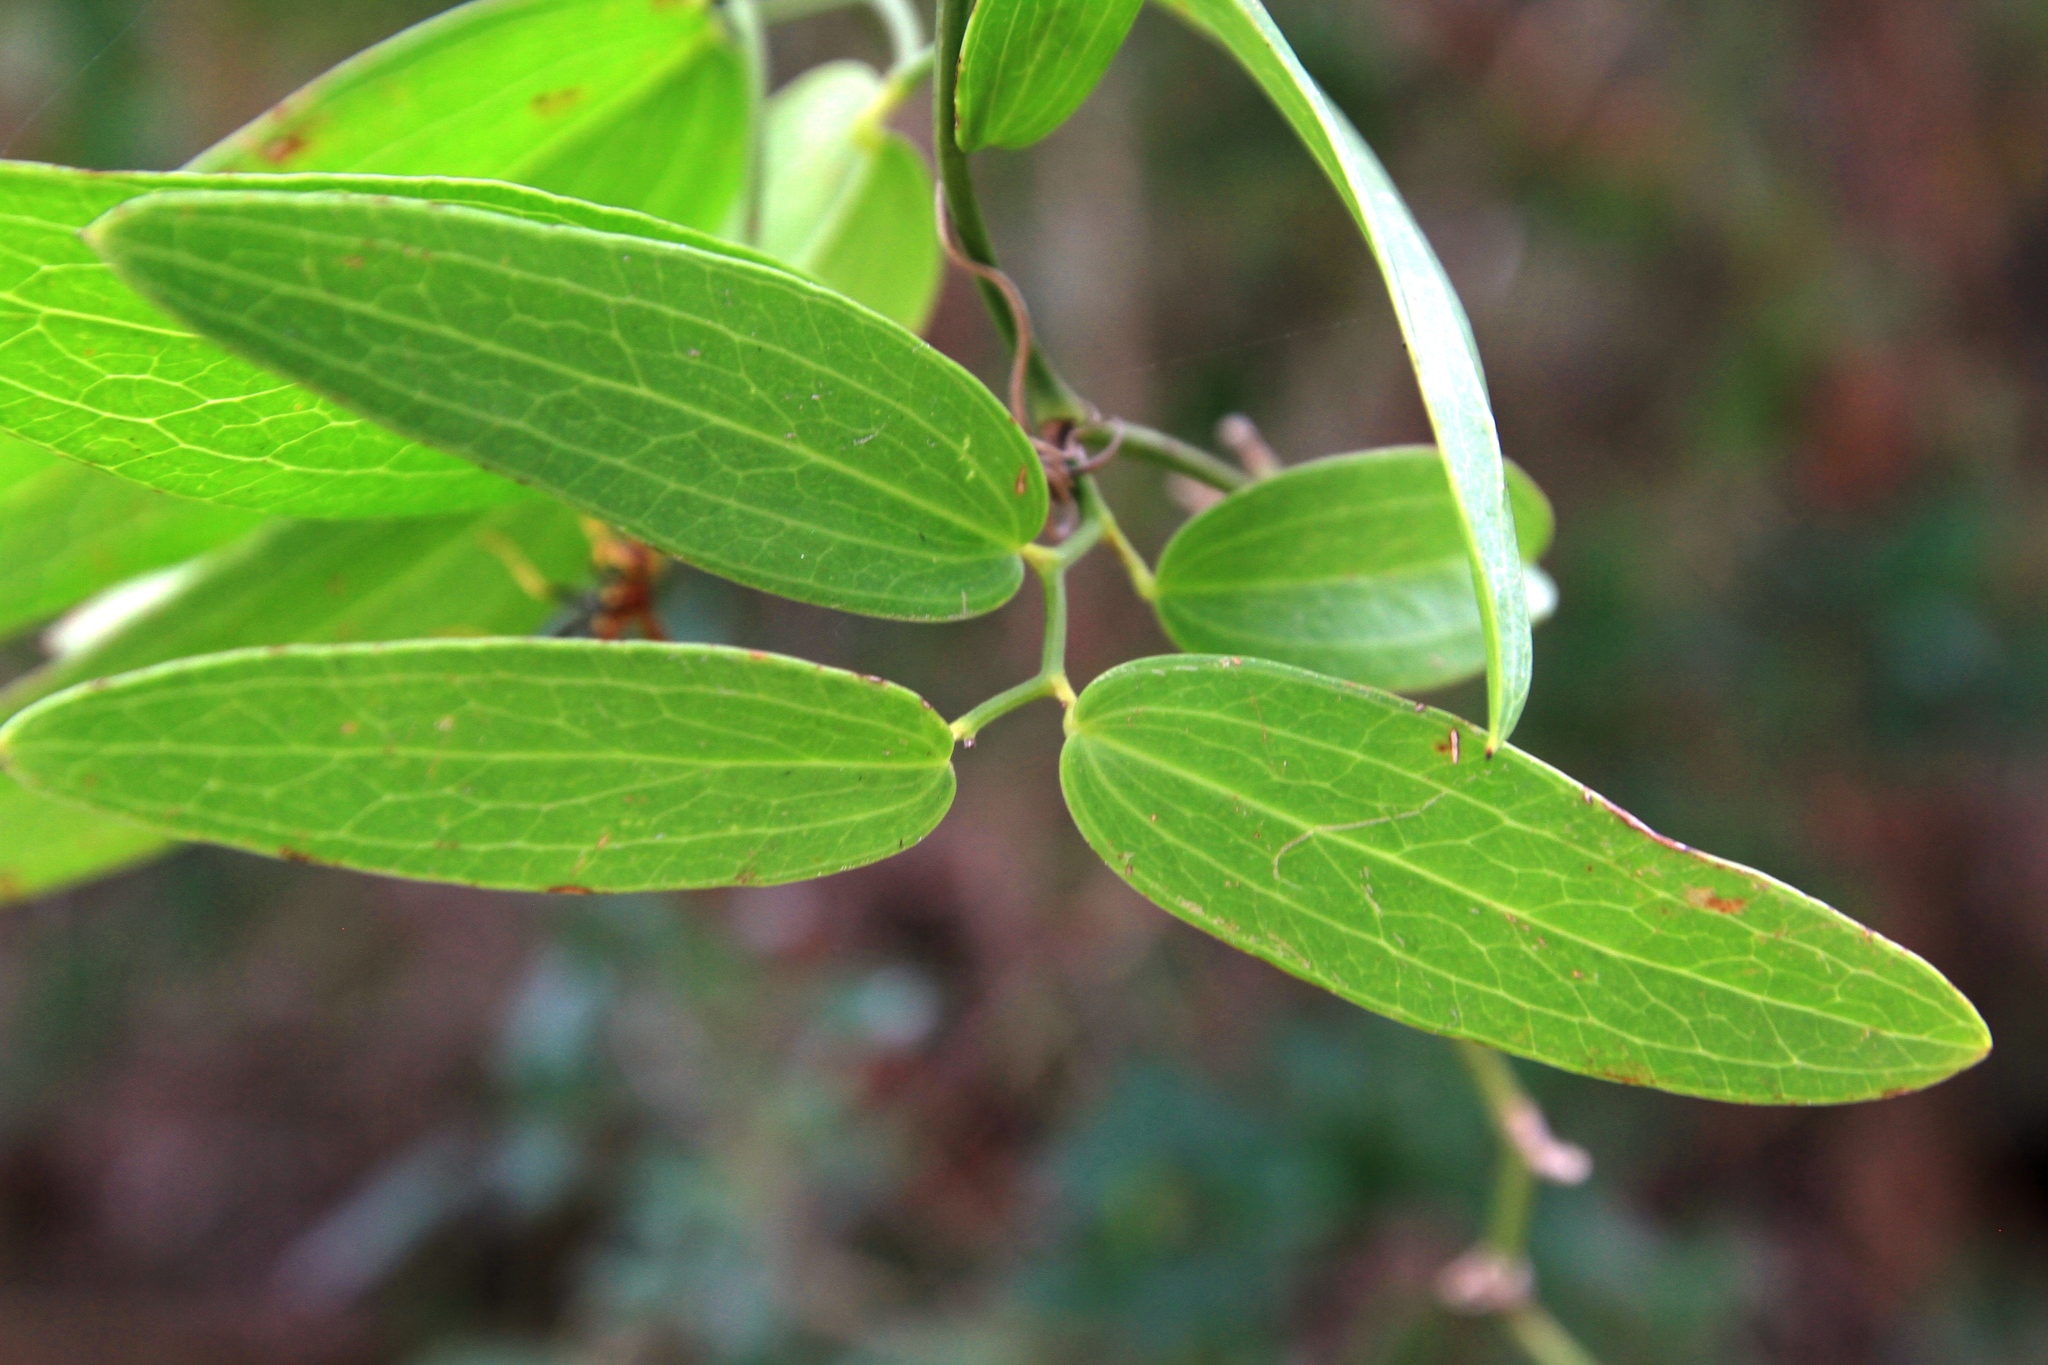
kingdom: Plantae
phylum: Tracheophyta
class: Liliopsida
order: Liliales
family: Smilacaceae
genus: Smilax
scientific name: Smilax canellifolia
